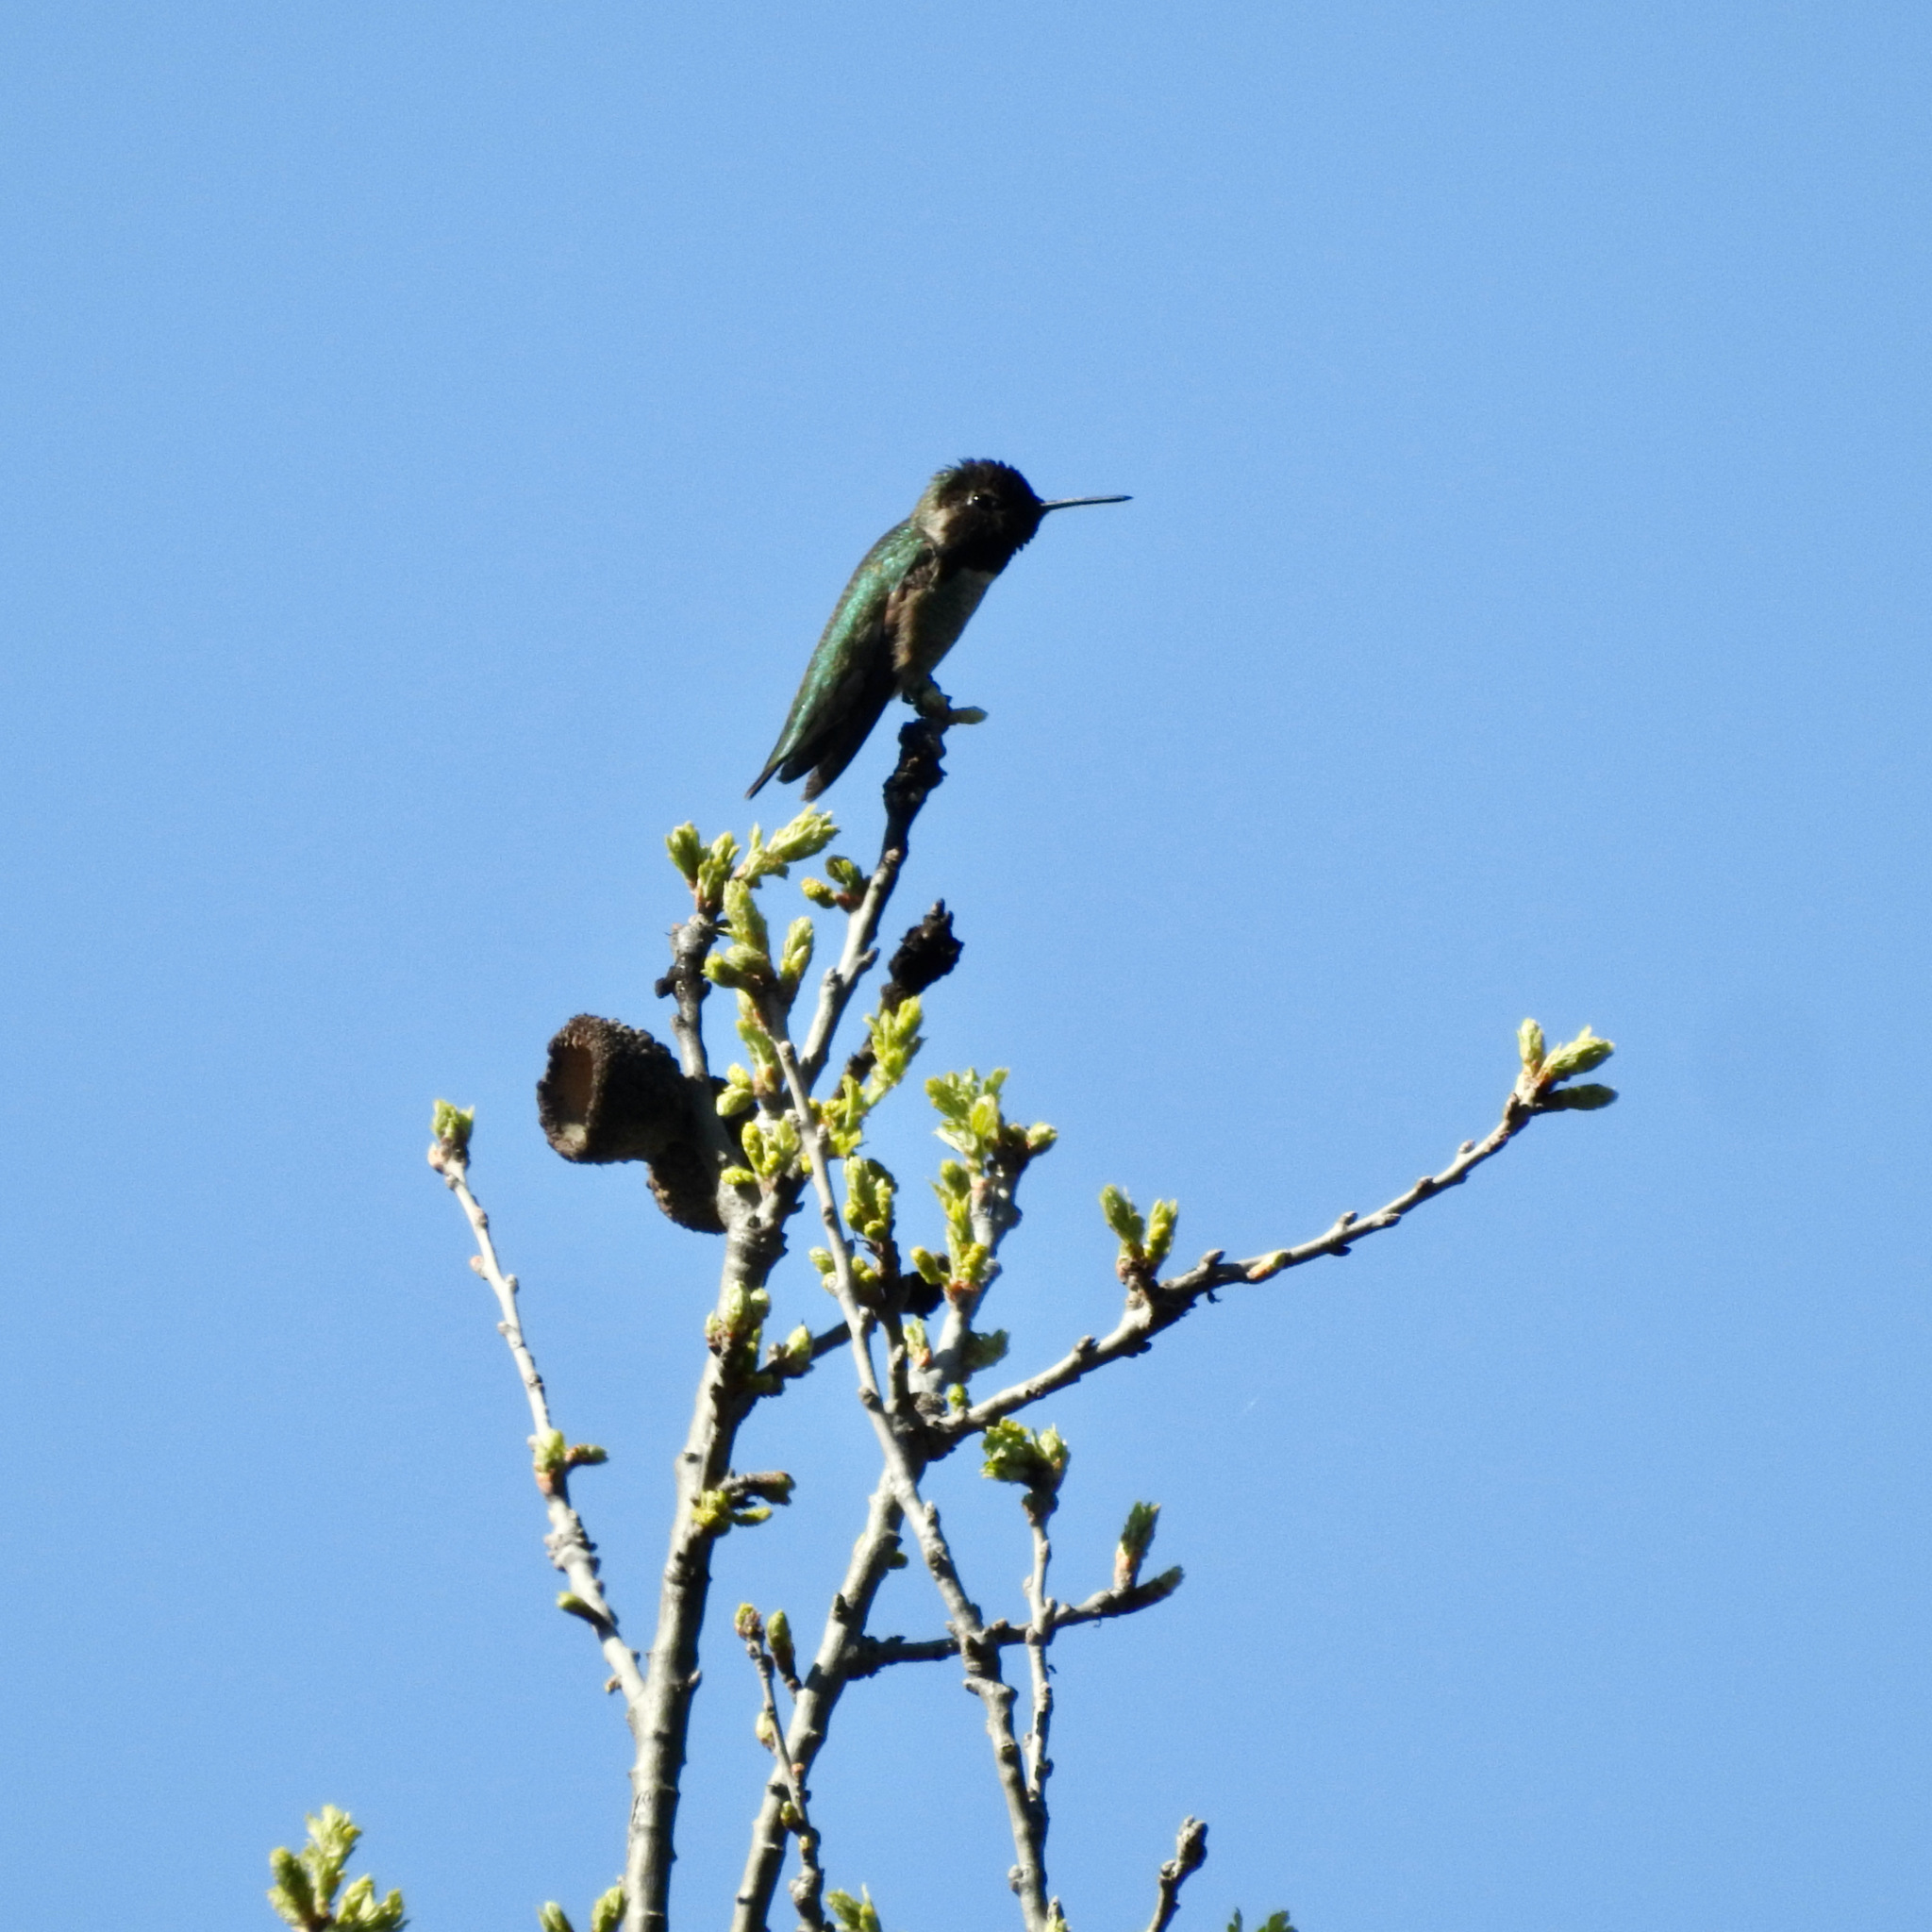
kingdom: Animalia
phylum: Chordata
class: Aves
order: Apodiformes
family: Trochilidae
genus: Calypte
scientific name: Calypte anna
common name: Anna's hummingbird
